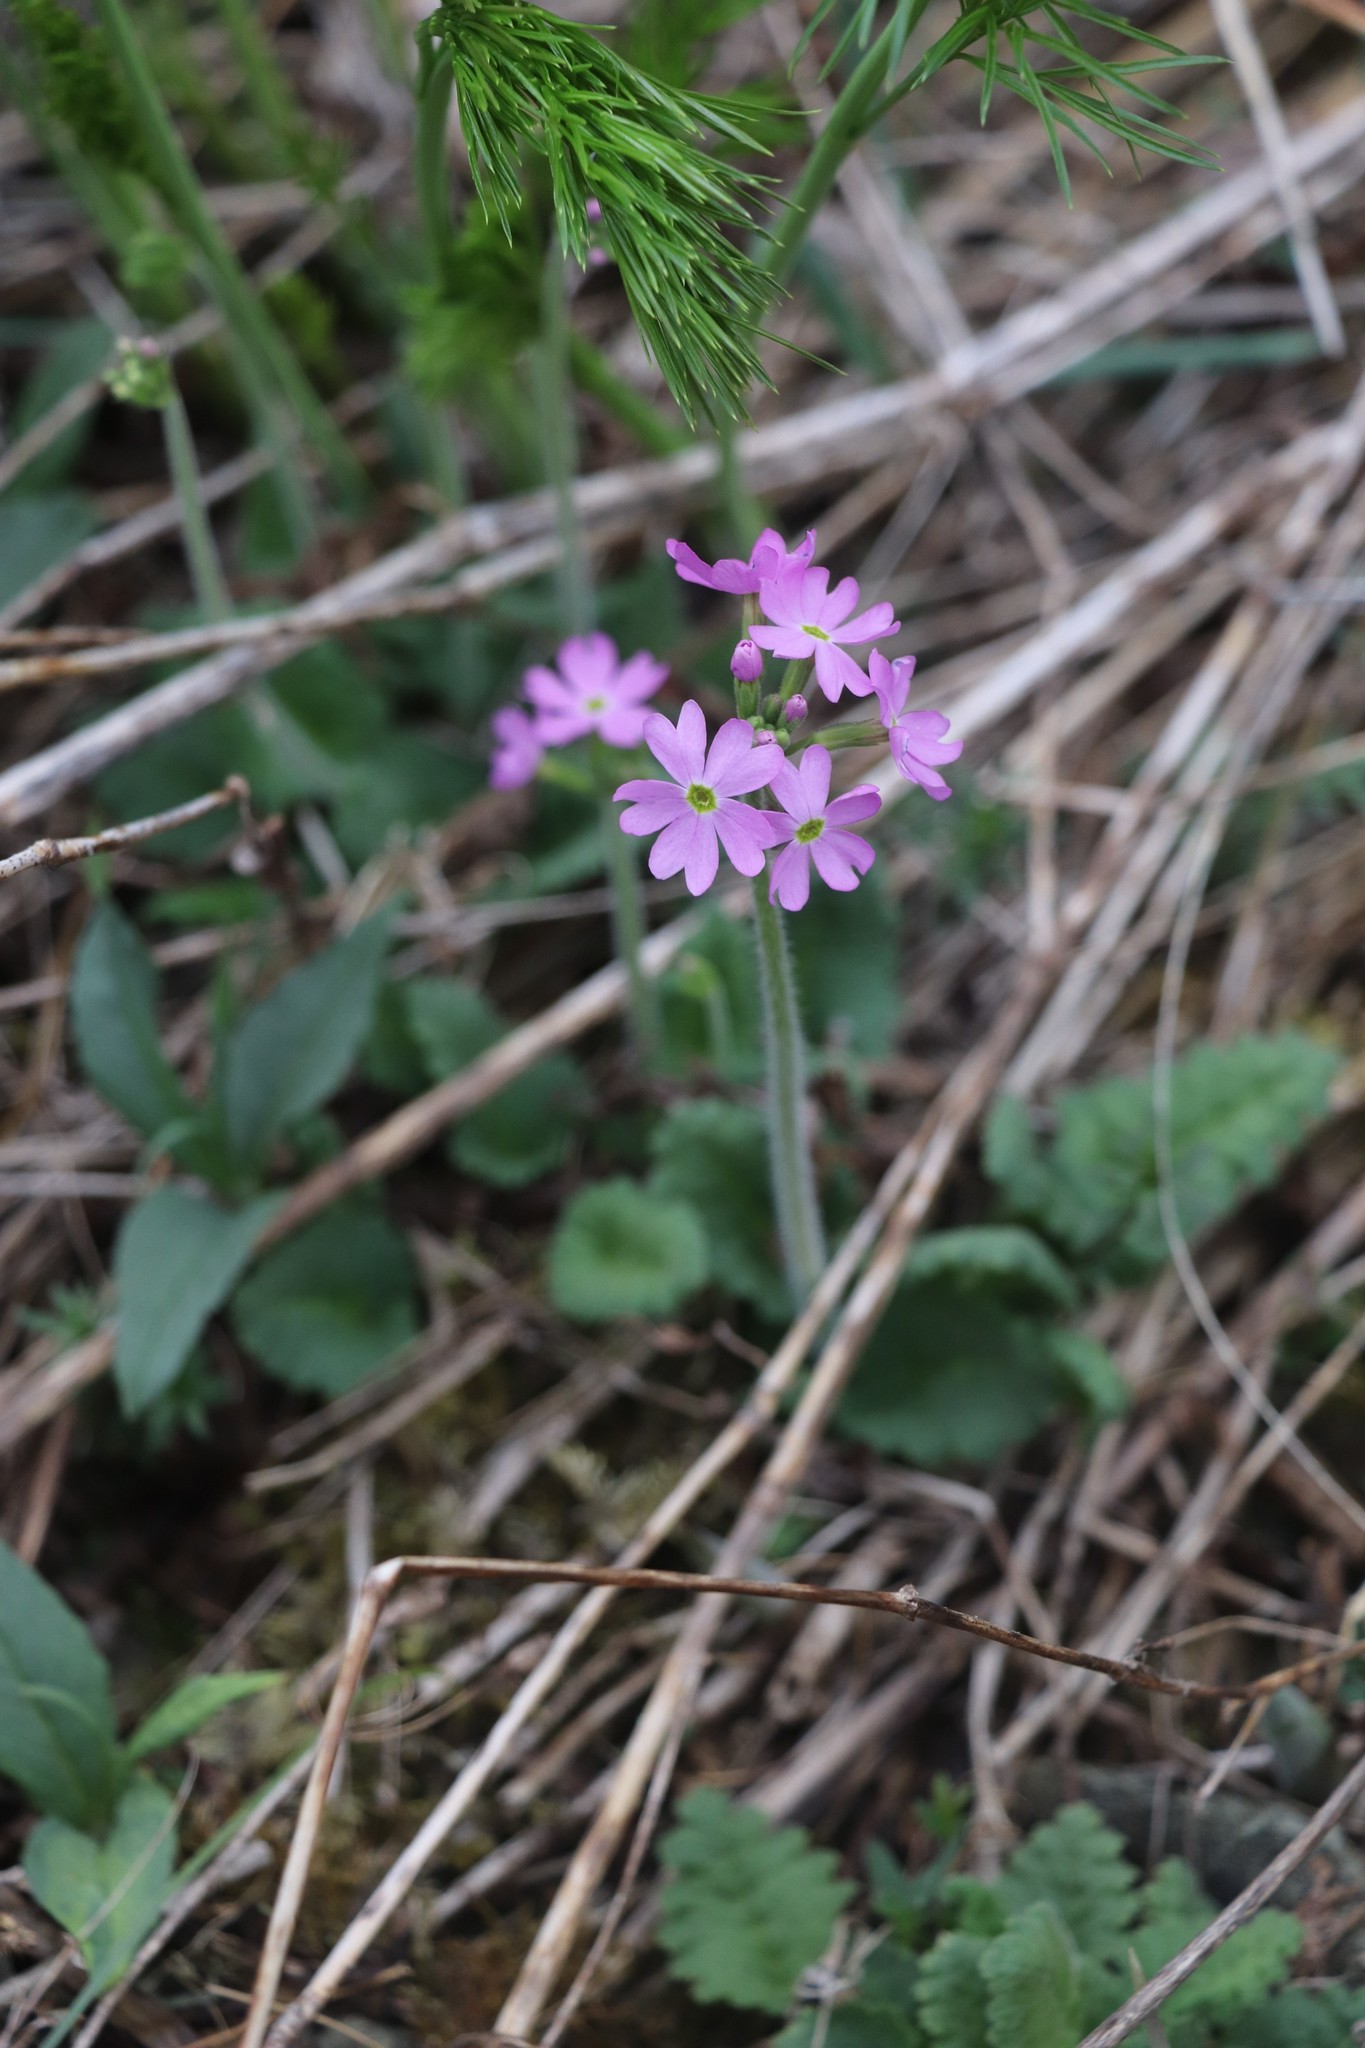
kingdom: Plantae
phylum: Tracheophyta
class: Magnoliopsida
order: Ericales
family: Primulaceae
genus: Primula
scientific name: Primula cortusoides
